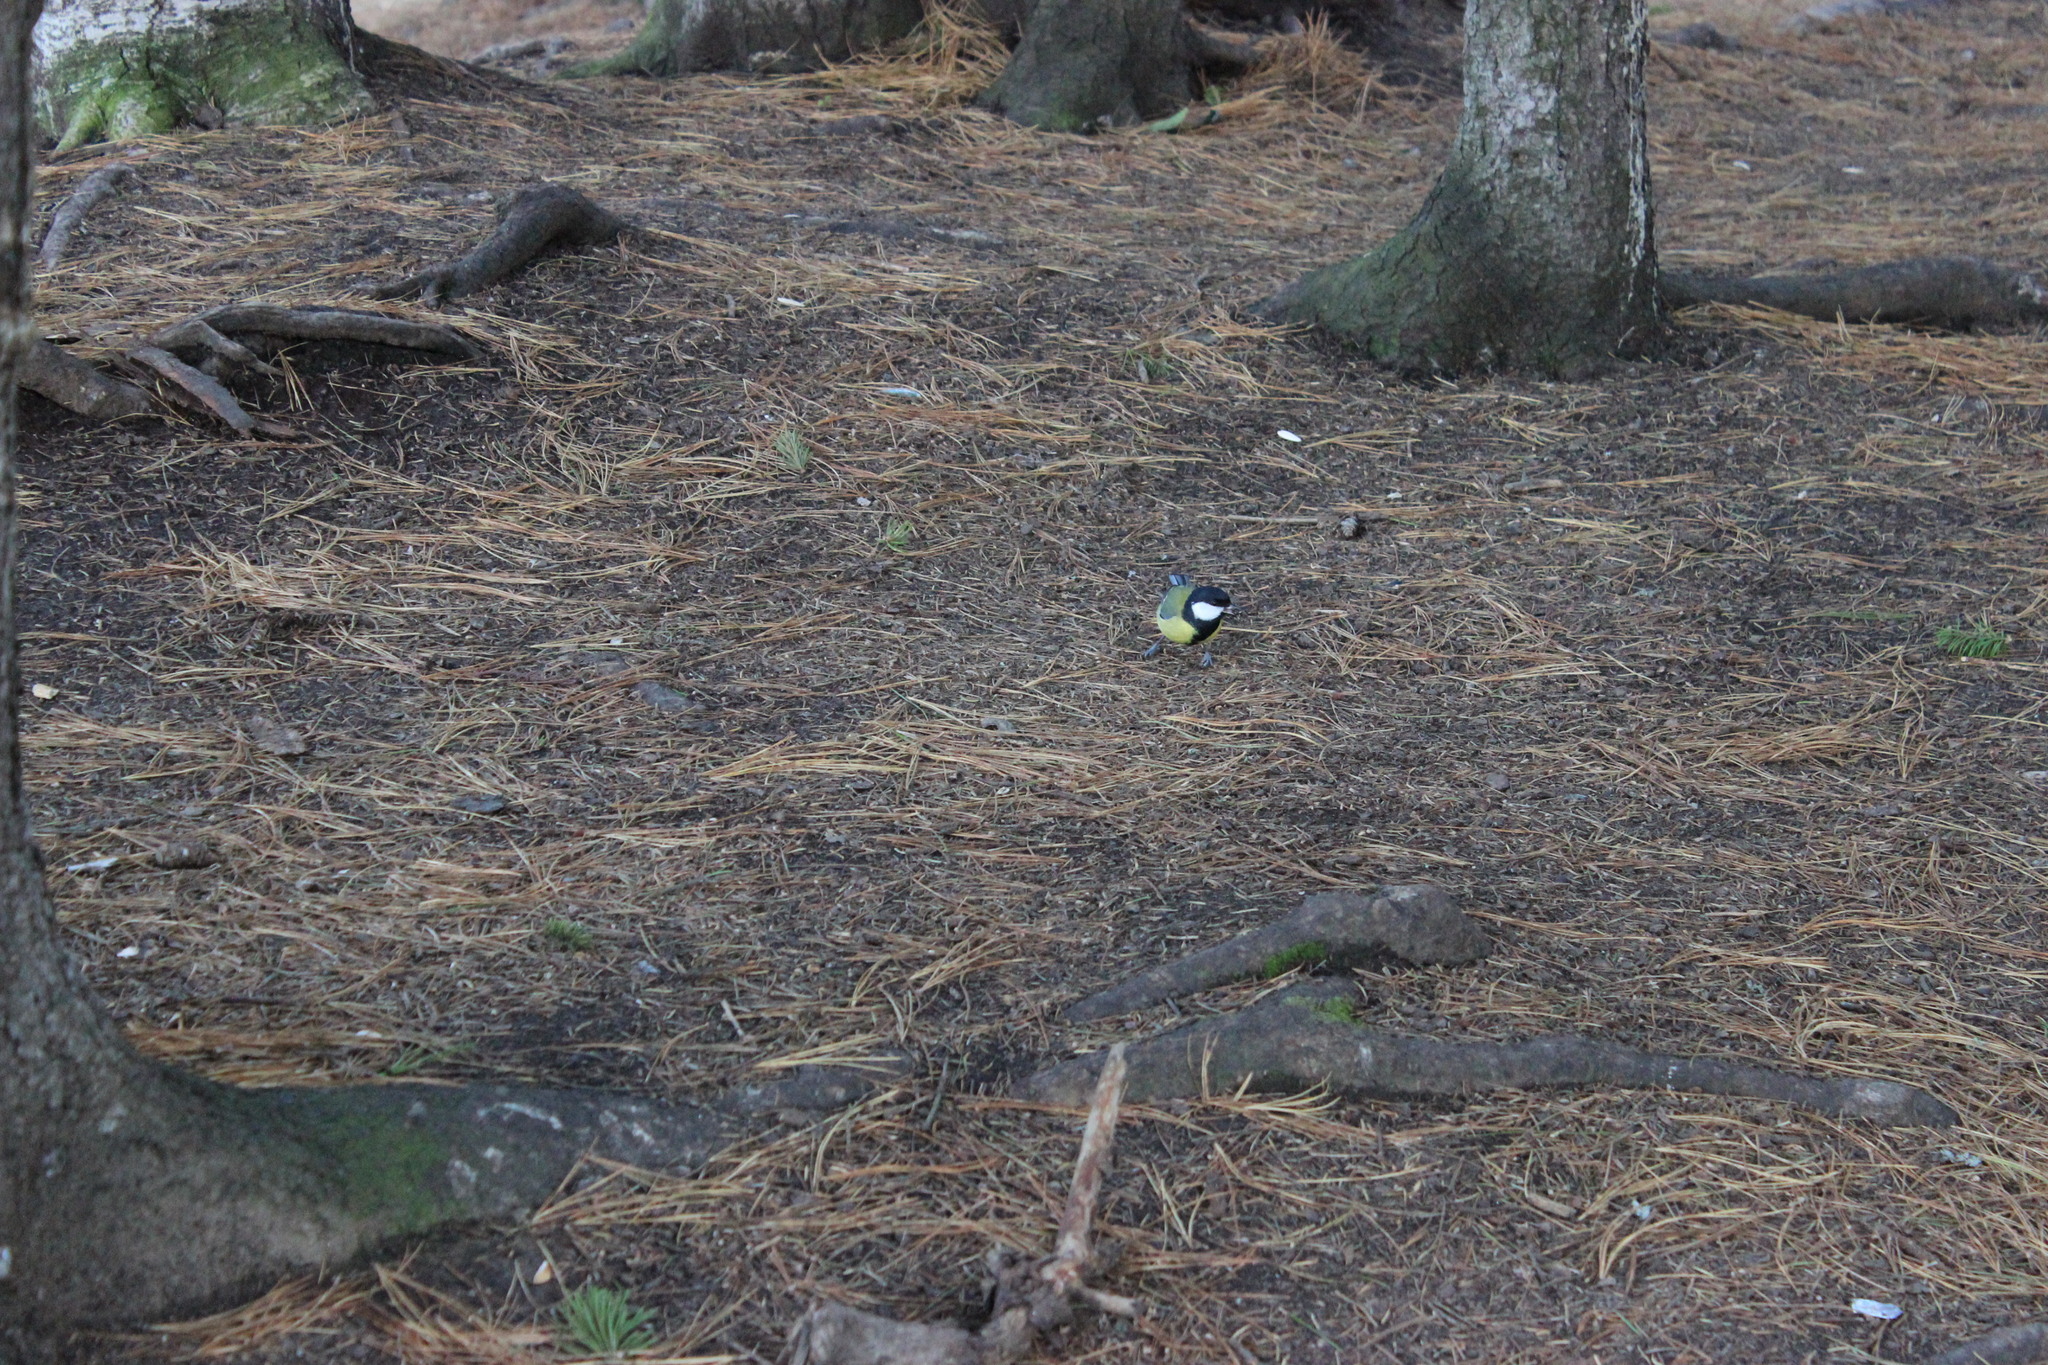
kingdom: Animalia
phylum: Chordata
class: Aves
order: Passeriformes
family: Paridae
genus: Parus
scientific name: Parus major
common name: Great tit
